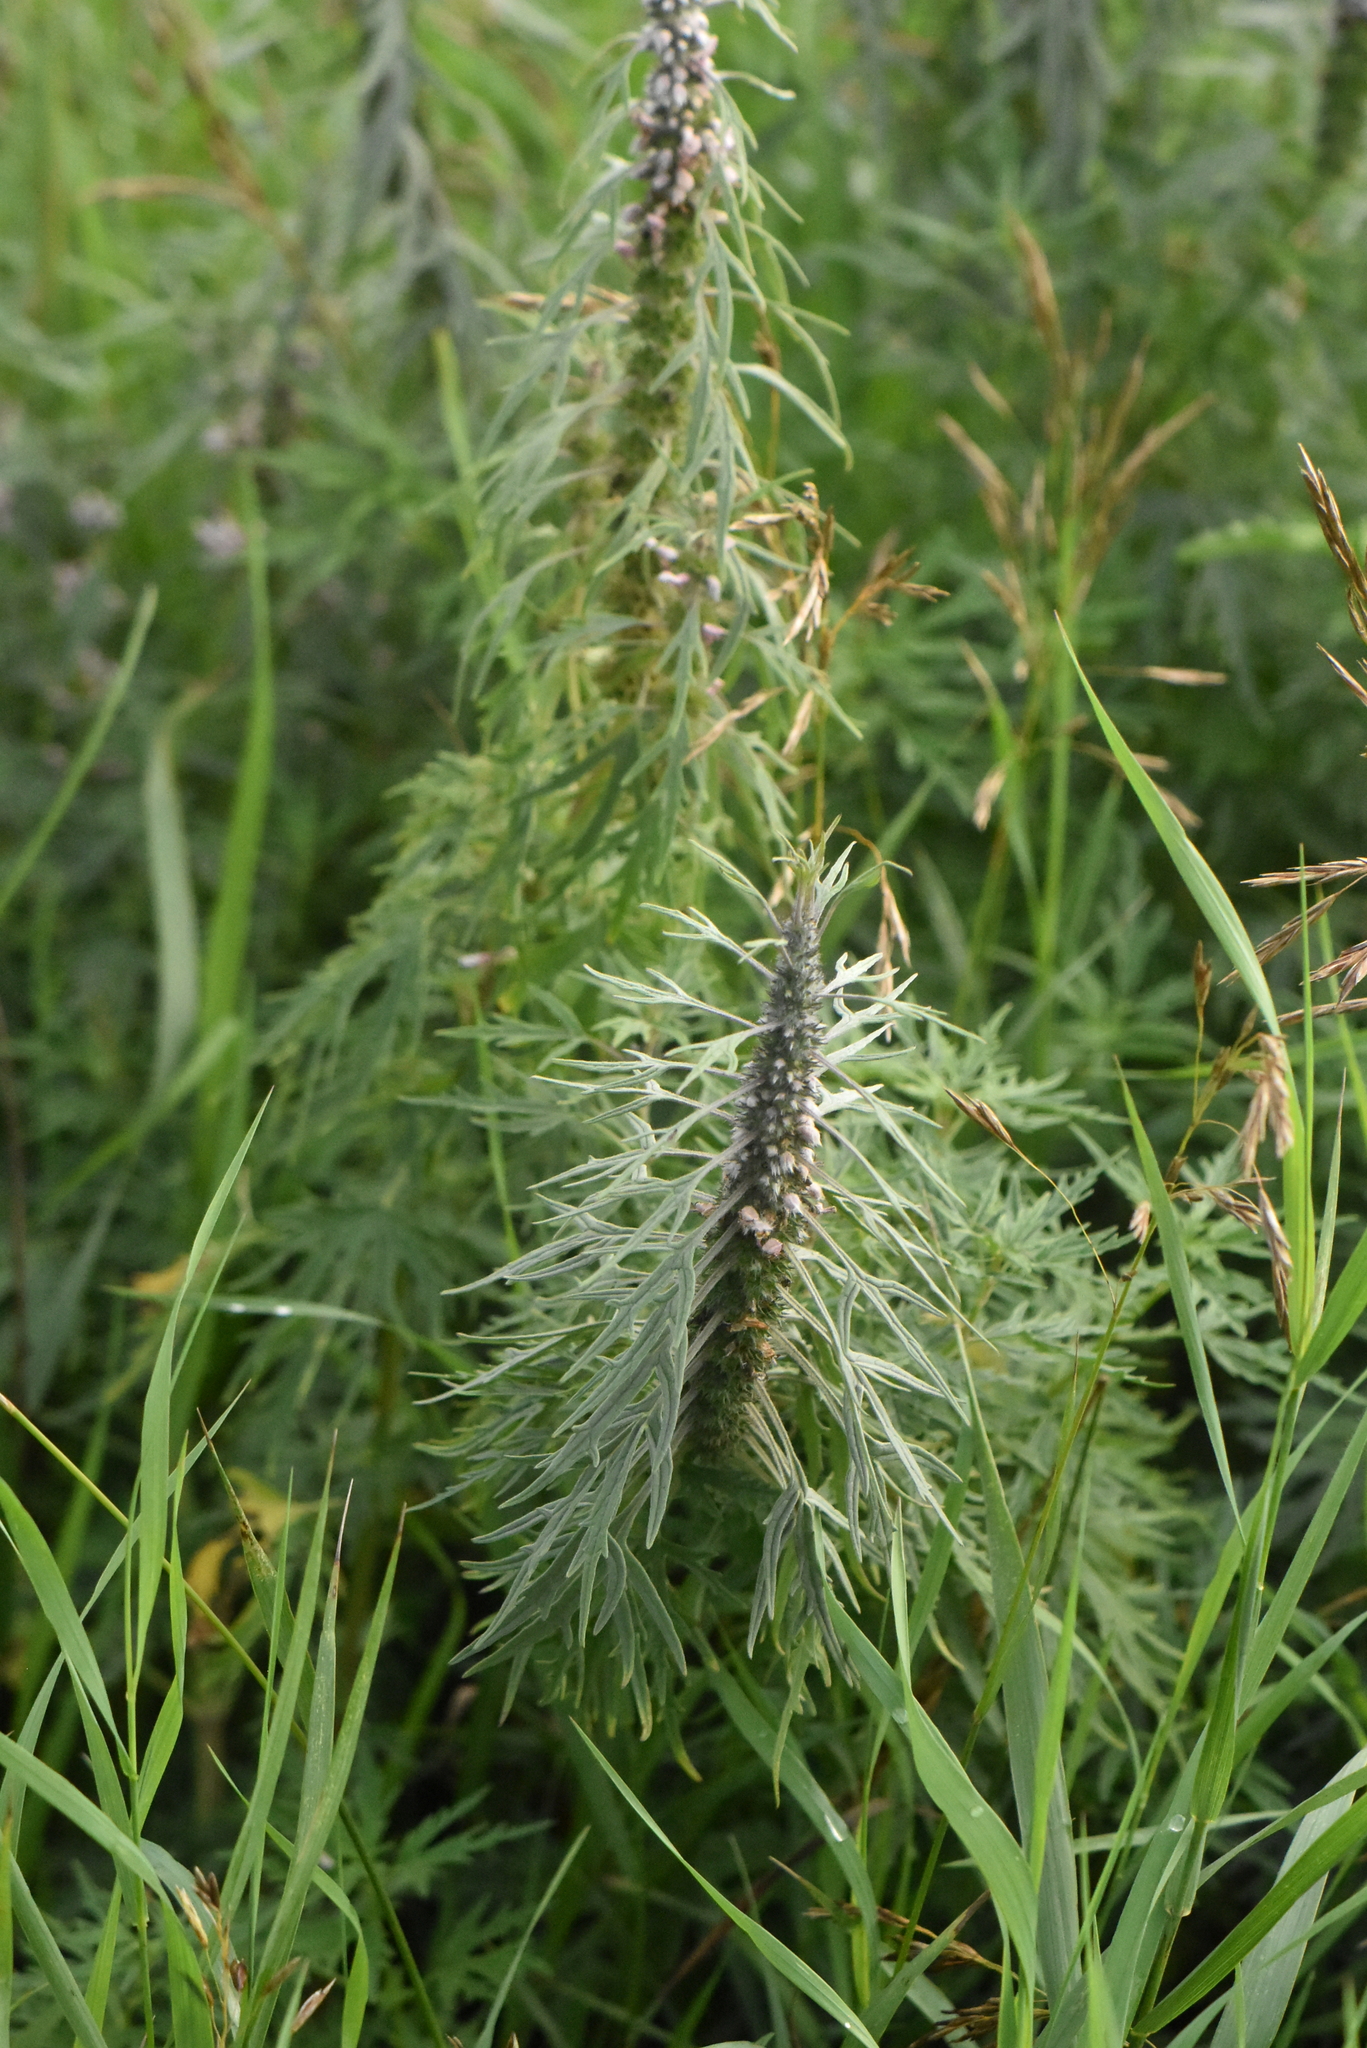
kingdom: Plantae
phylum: Tracheophyta
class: Magnoliopsida
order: Lamiales
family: Lamiaceae
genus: Leonurus
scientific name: Leonurus quinquelobatus
